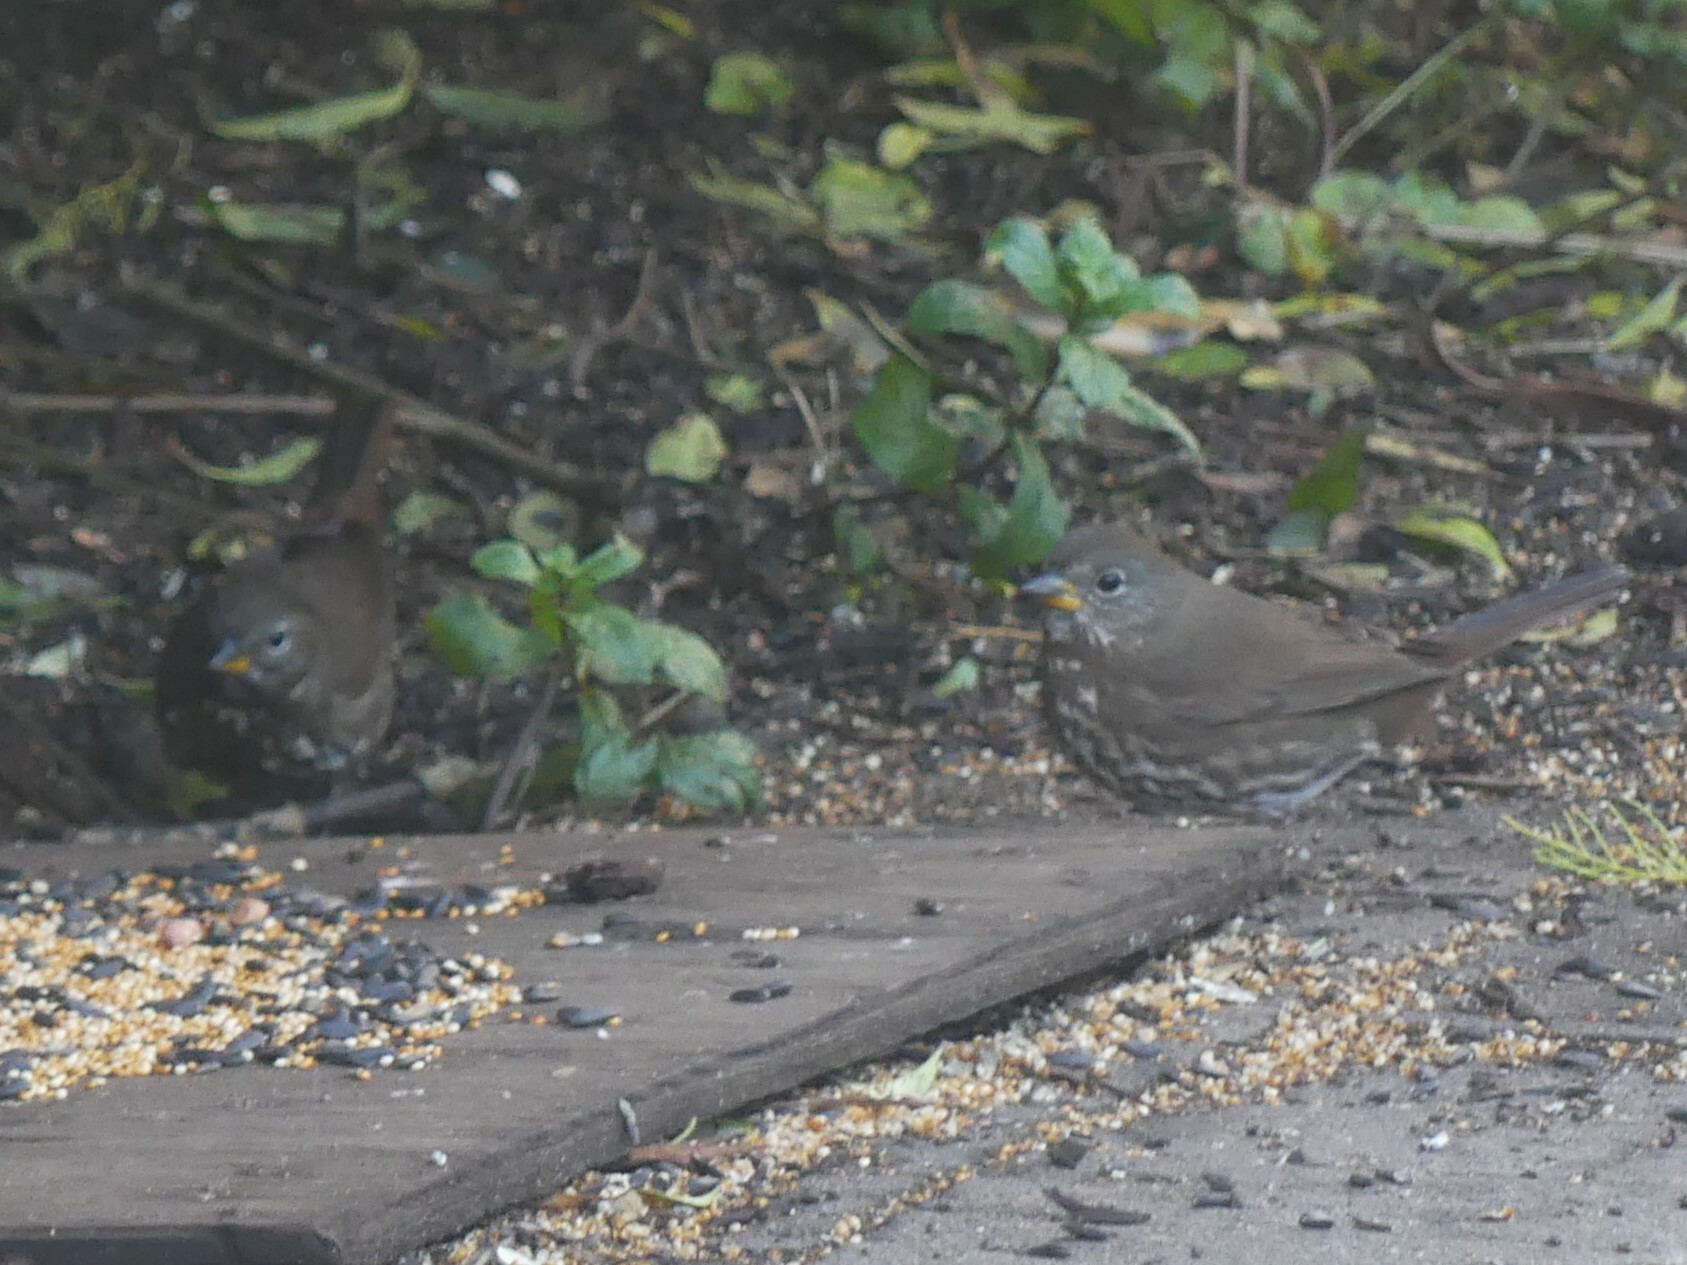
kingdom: Animalia
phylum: Chordata
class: Aves
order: Passeriformes
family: Passerellidae
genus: Passerella
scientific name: Passerella iliaca
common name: Fox sparrow
